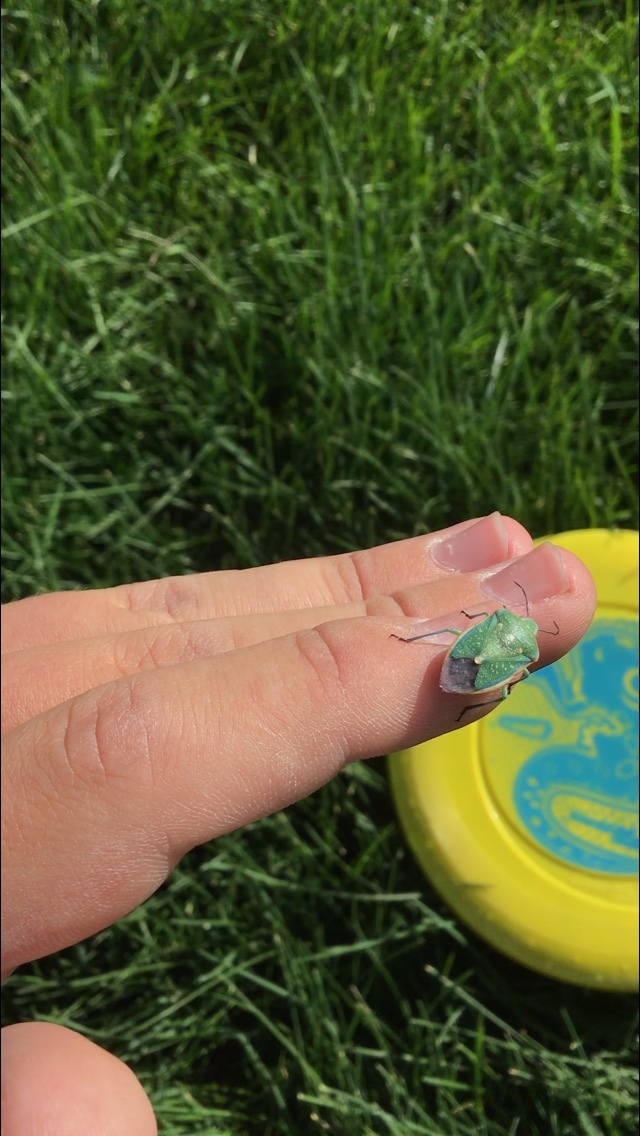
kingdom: Animalia
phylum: Arthropoda
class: Insecta
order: Hemiptera
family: Pentatomidae
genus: Chlorochroa
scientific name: Chlorochroa sayi
